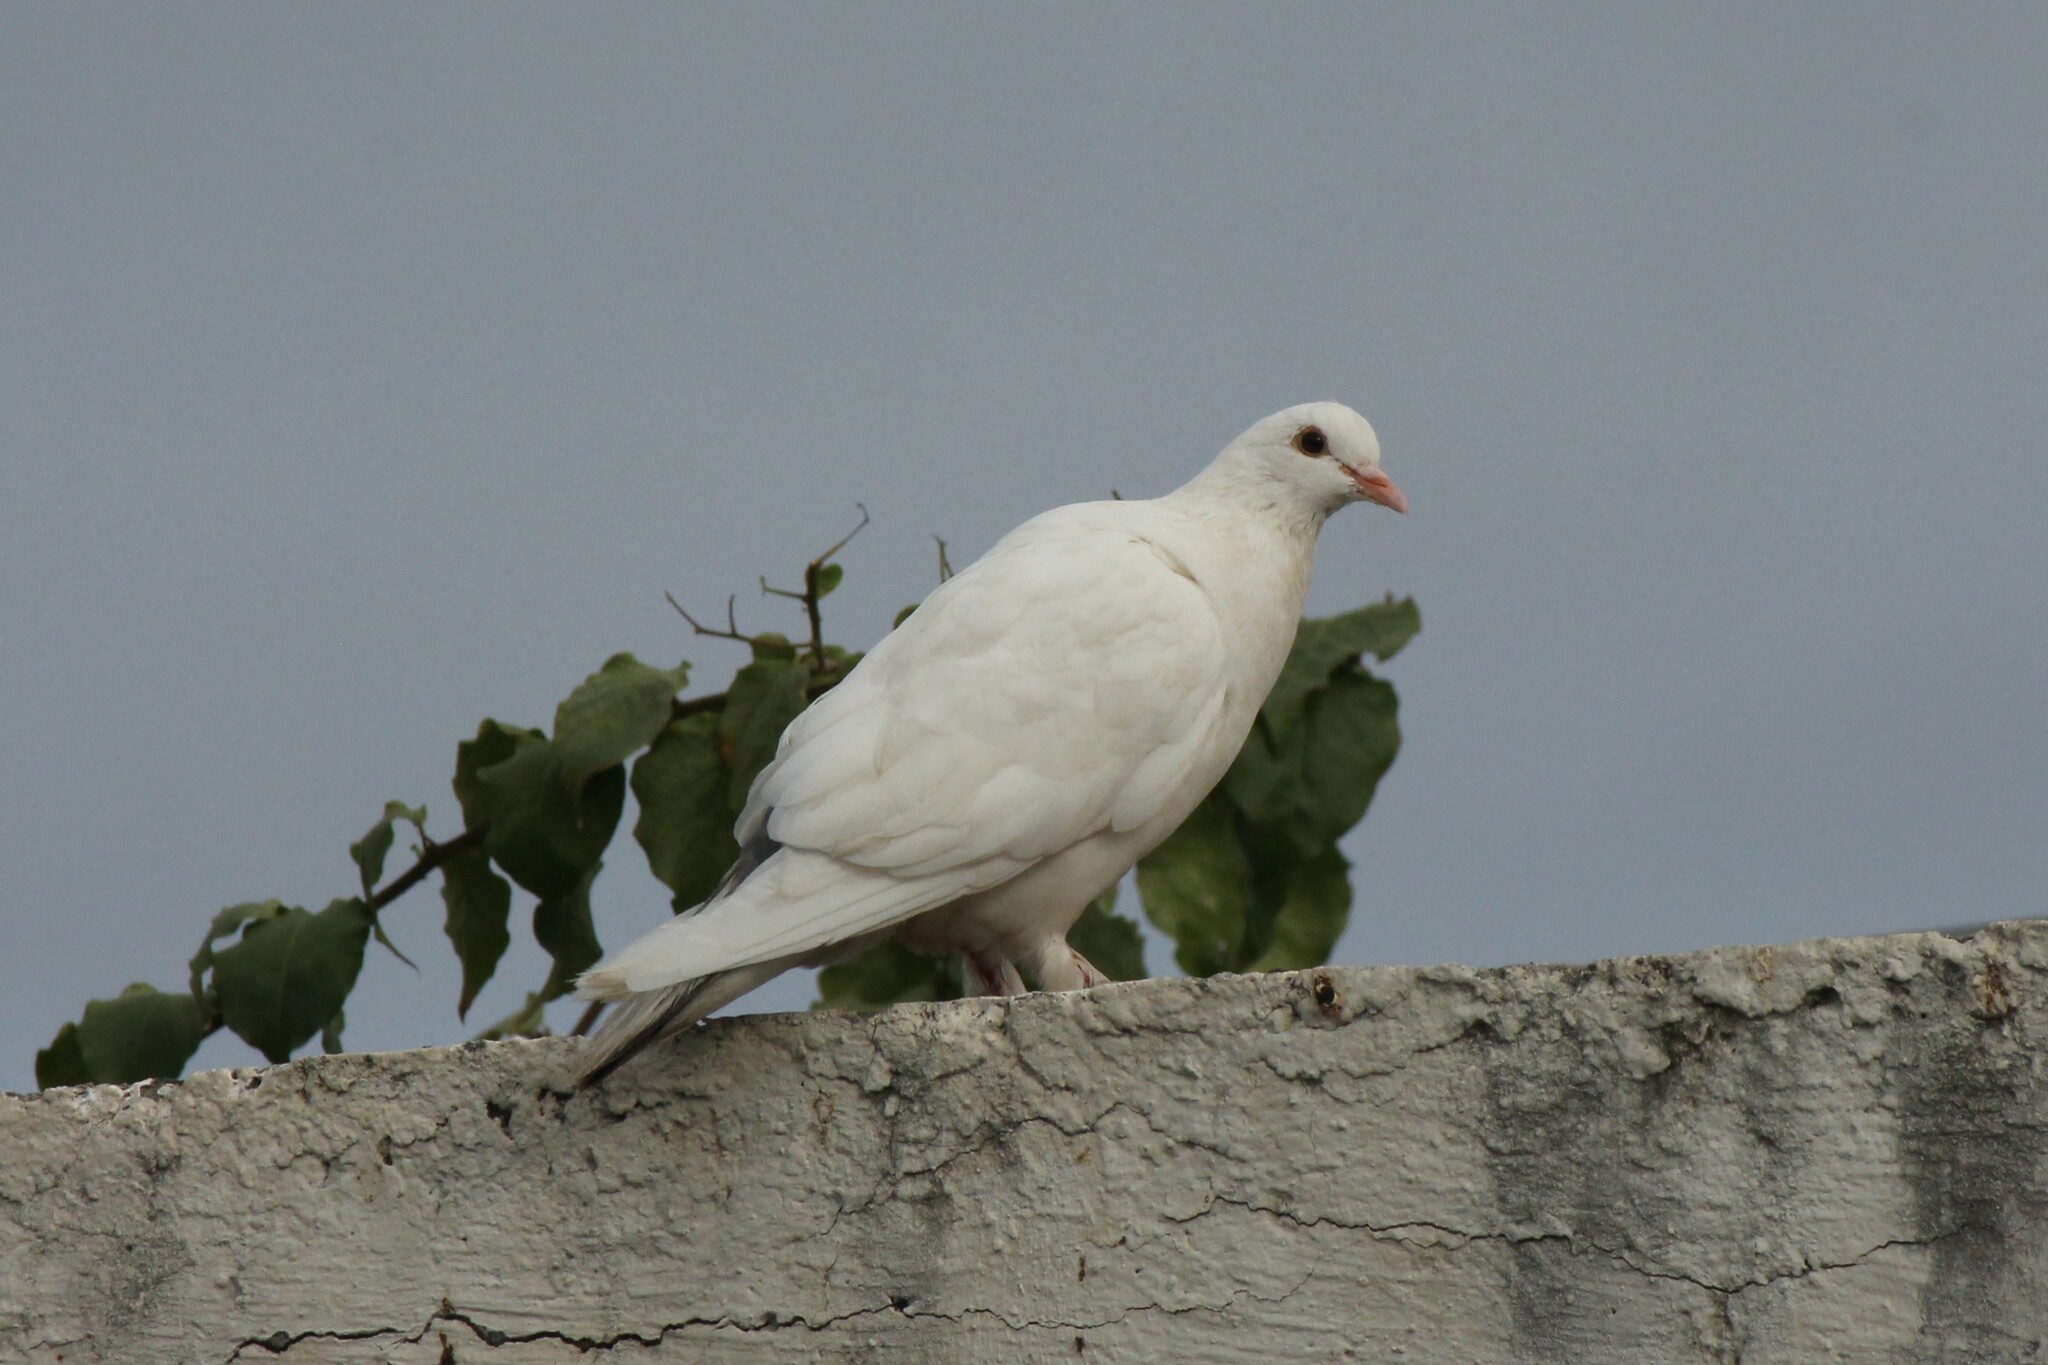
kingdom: Animalia
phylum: Chordata
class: Aves
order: Columbiformes
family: Columbidae
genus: Columba
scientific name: Columba livia
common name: Rock pigeon
